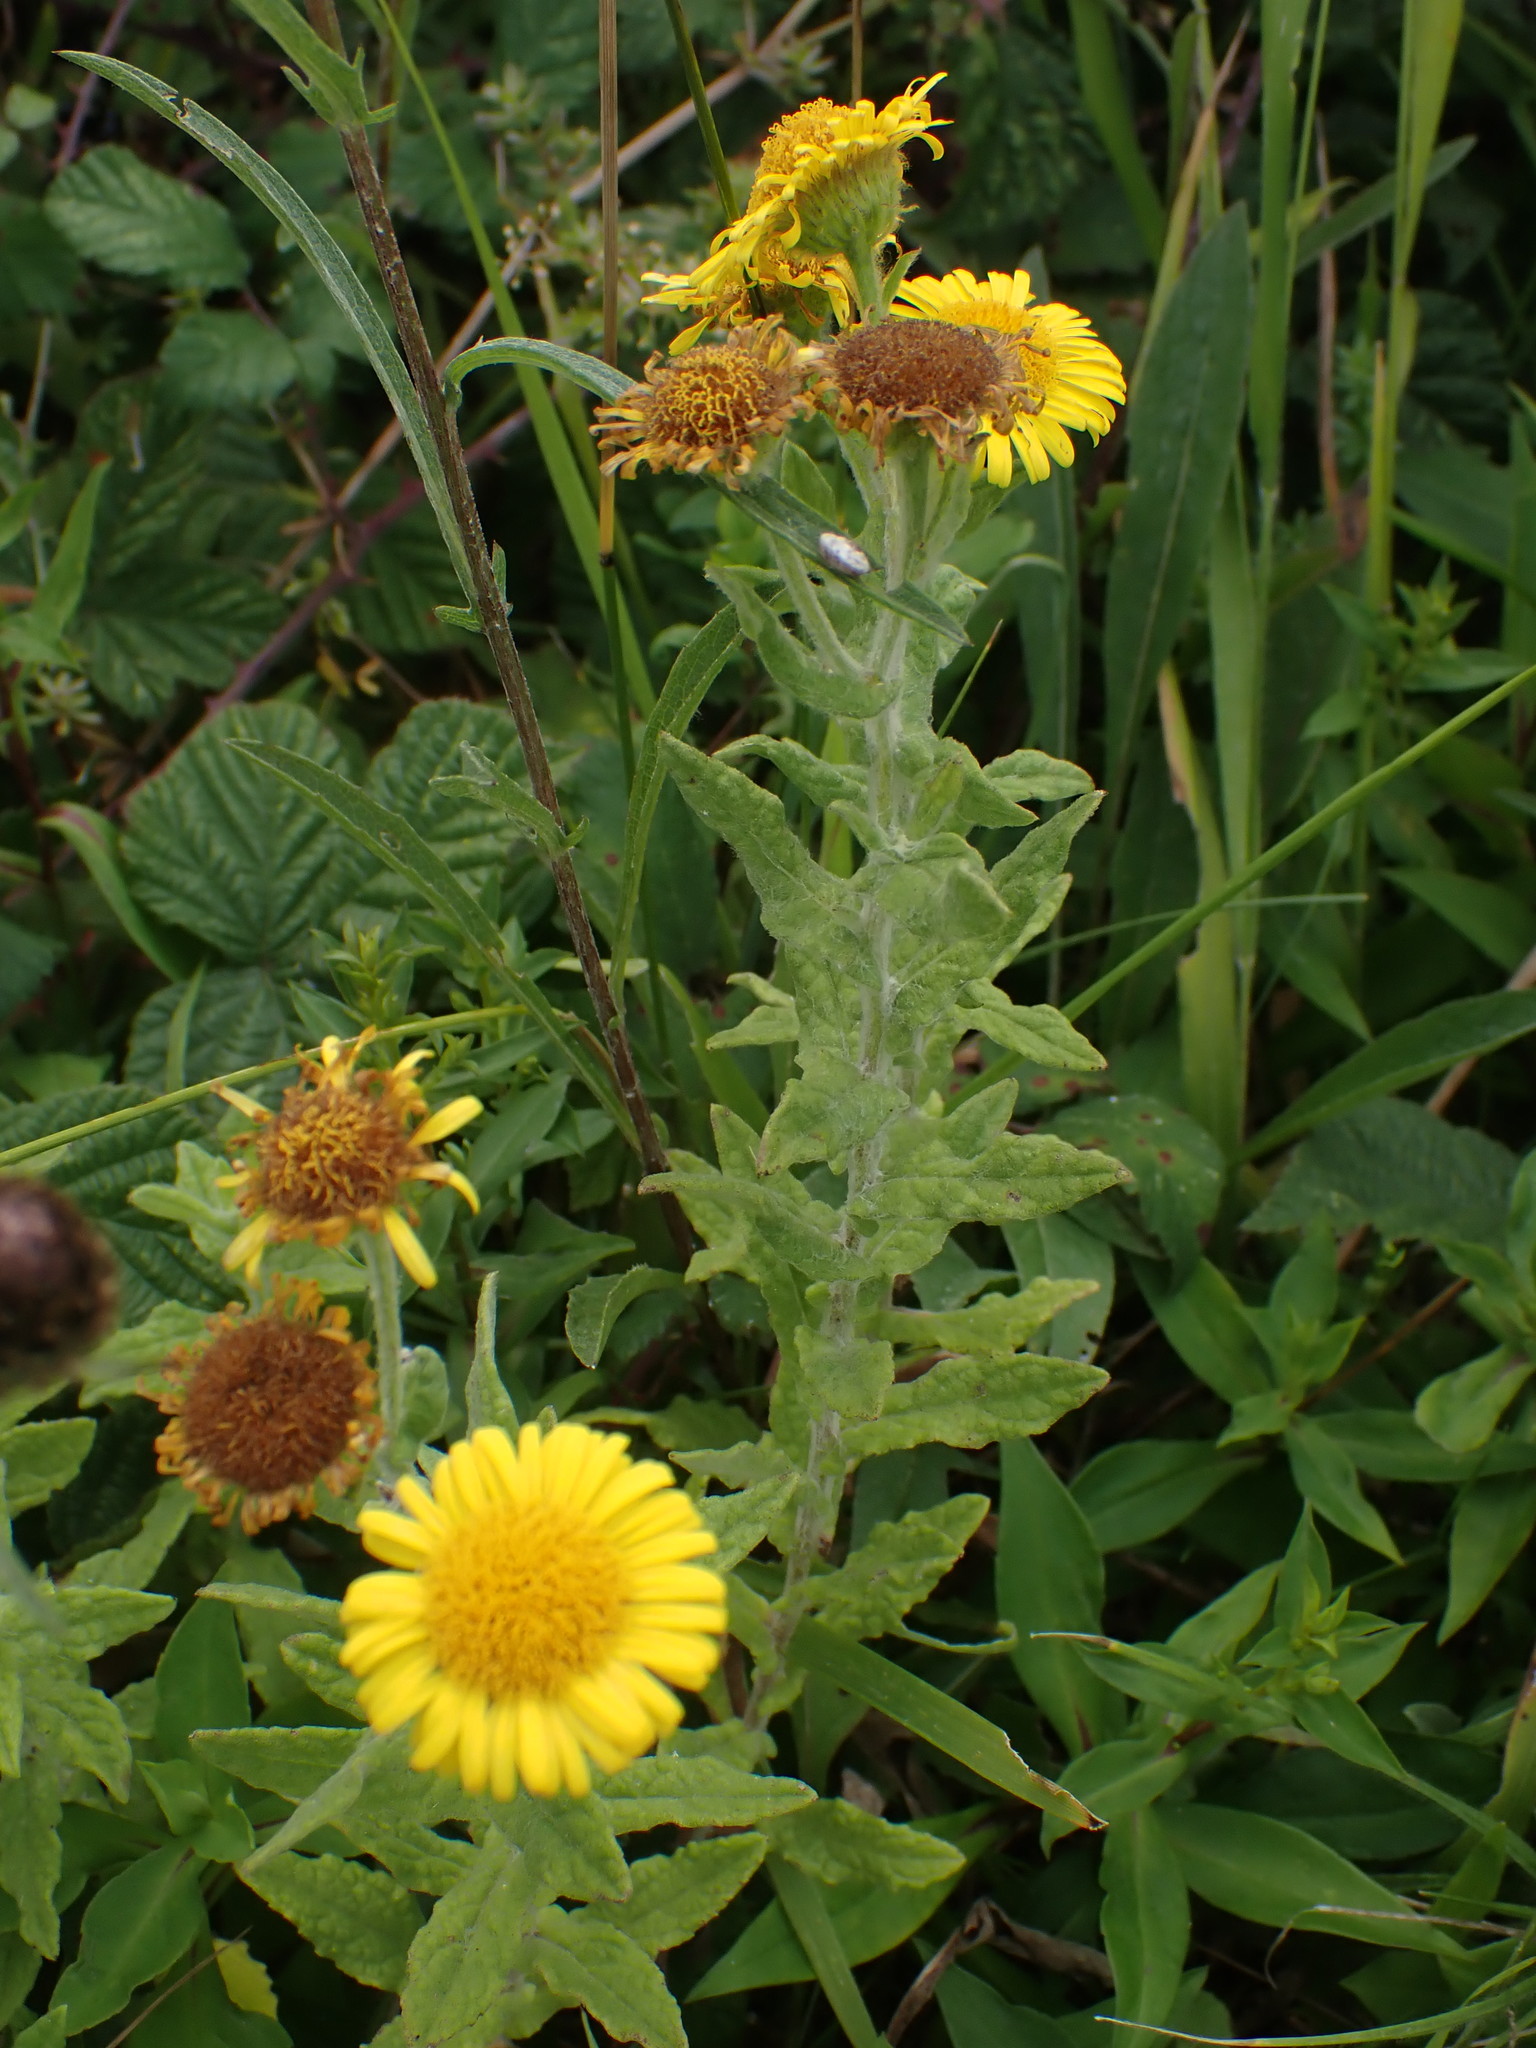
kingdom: Plantae
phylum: Tracheophyta
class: Magnoliopsida
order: Asterales
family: Asteraceae
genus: Pulicaria
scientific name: Pulicaria dysenterica
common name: Common fleabane
